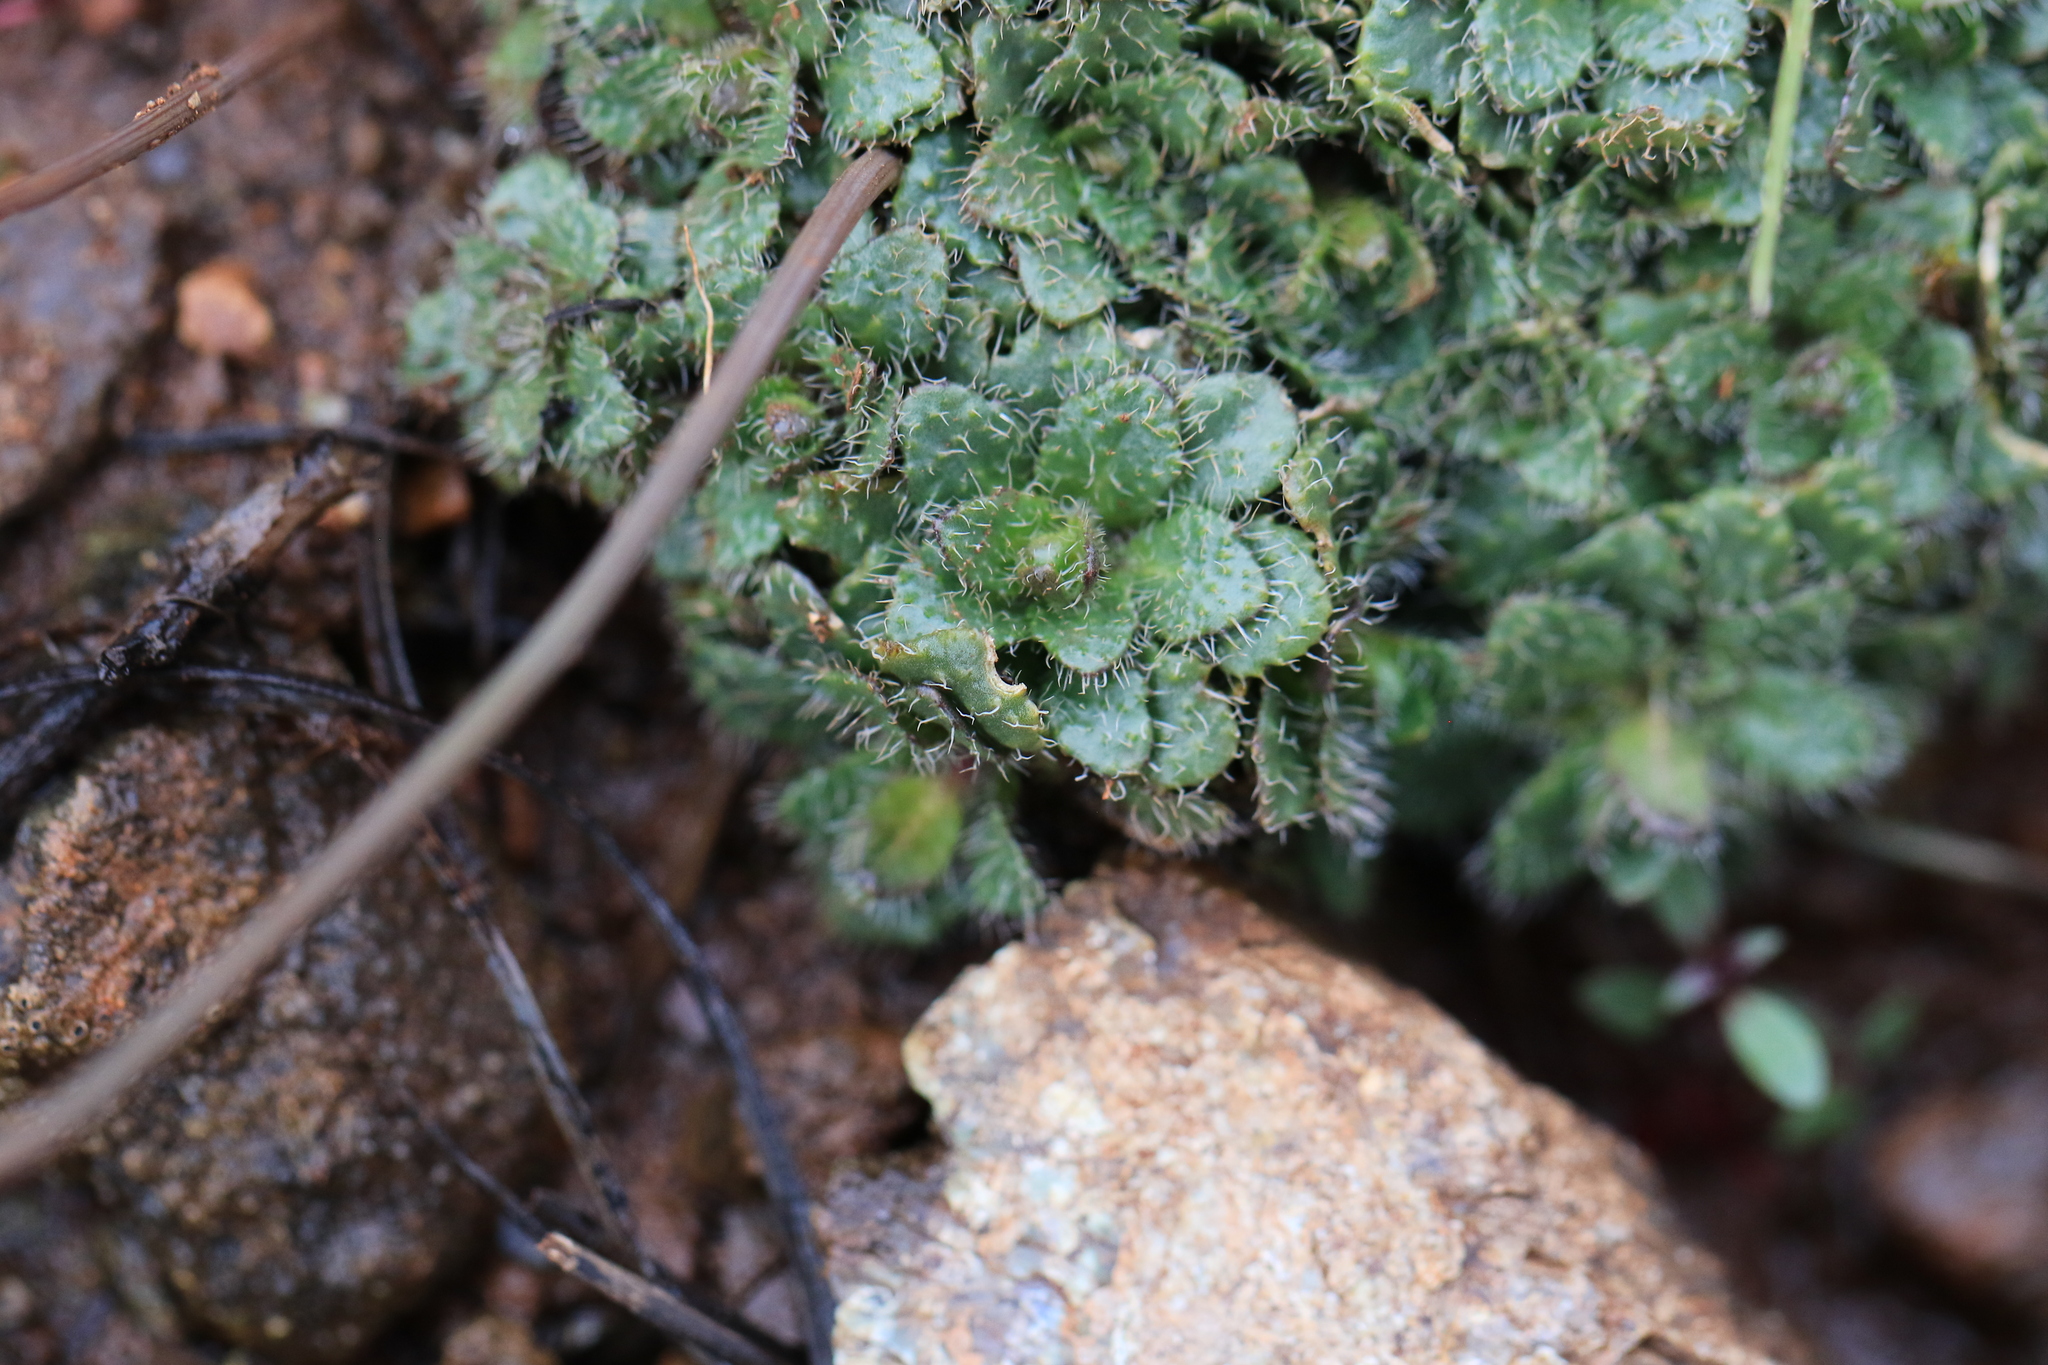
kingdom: Plantae
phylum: Tracheophyta
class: Magnoliopsida
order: Brassicales
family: Brassicaceae
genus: Arabis
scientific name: Arabis aculeolata
